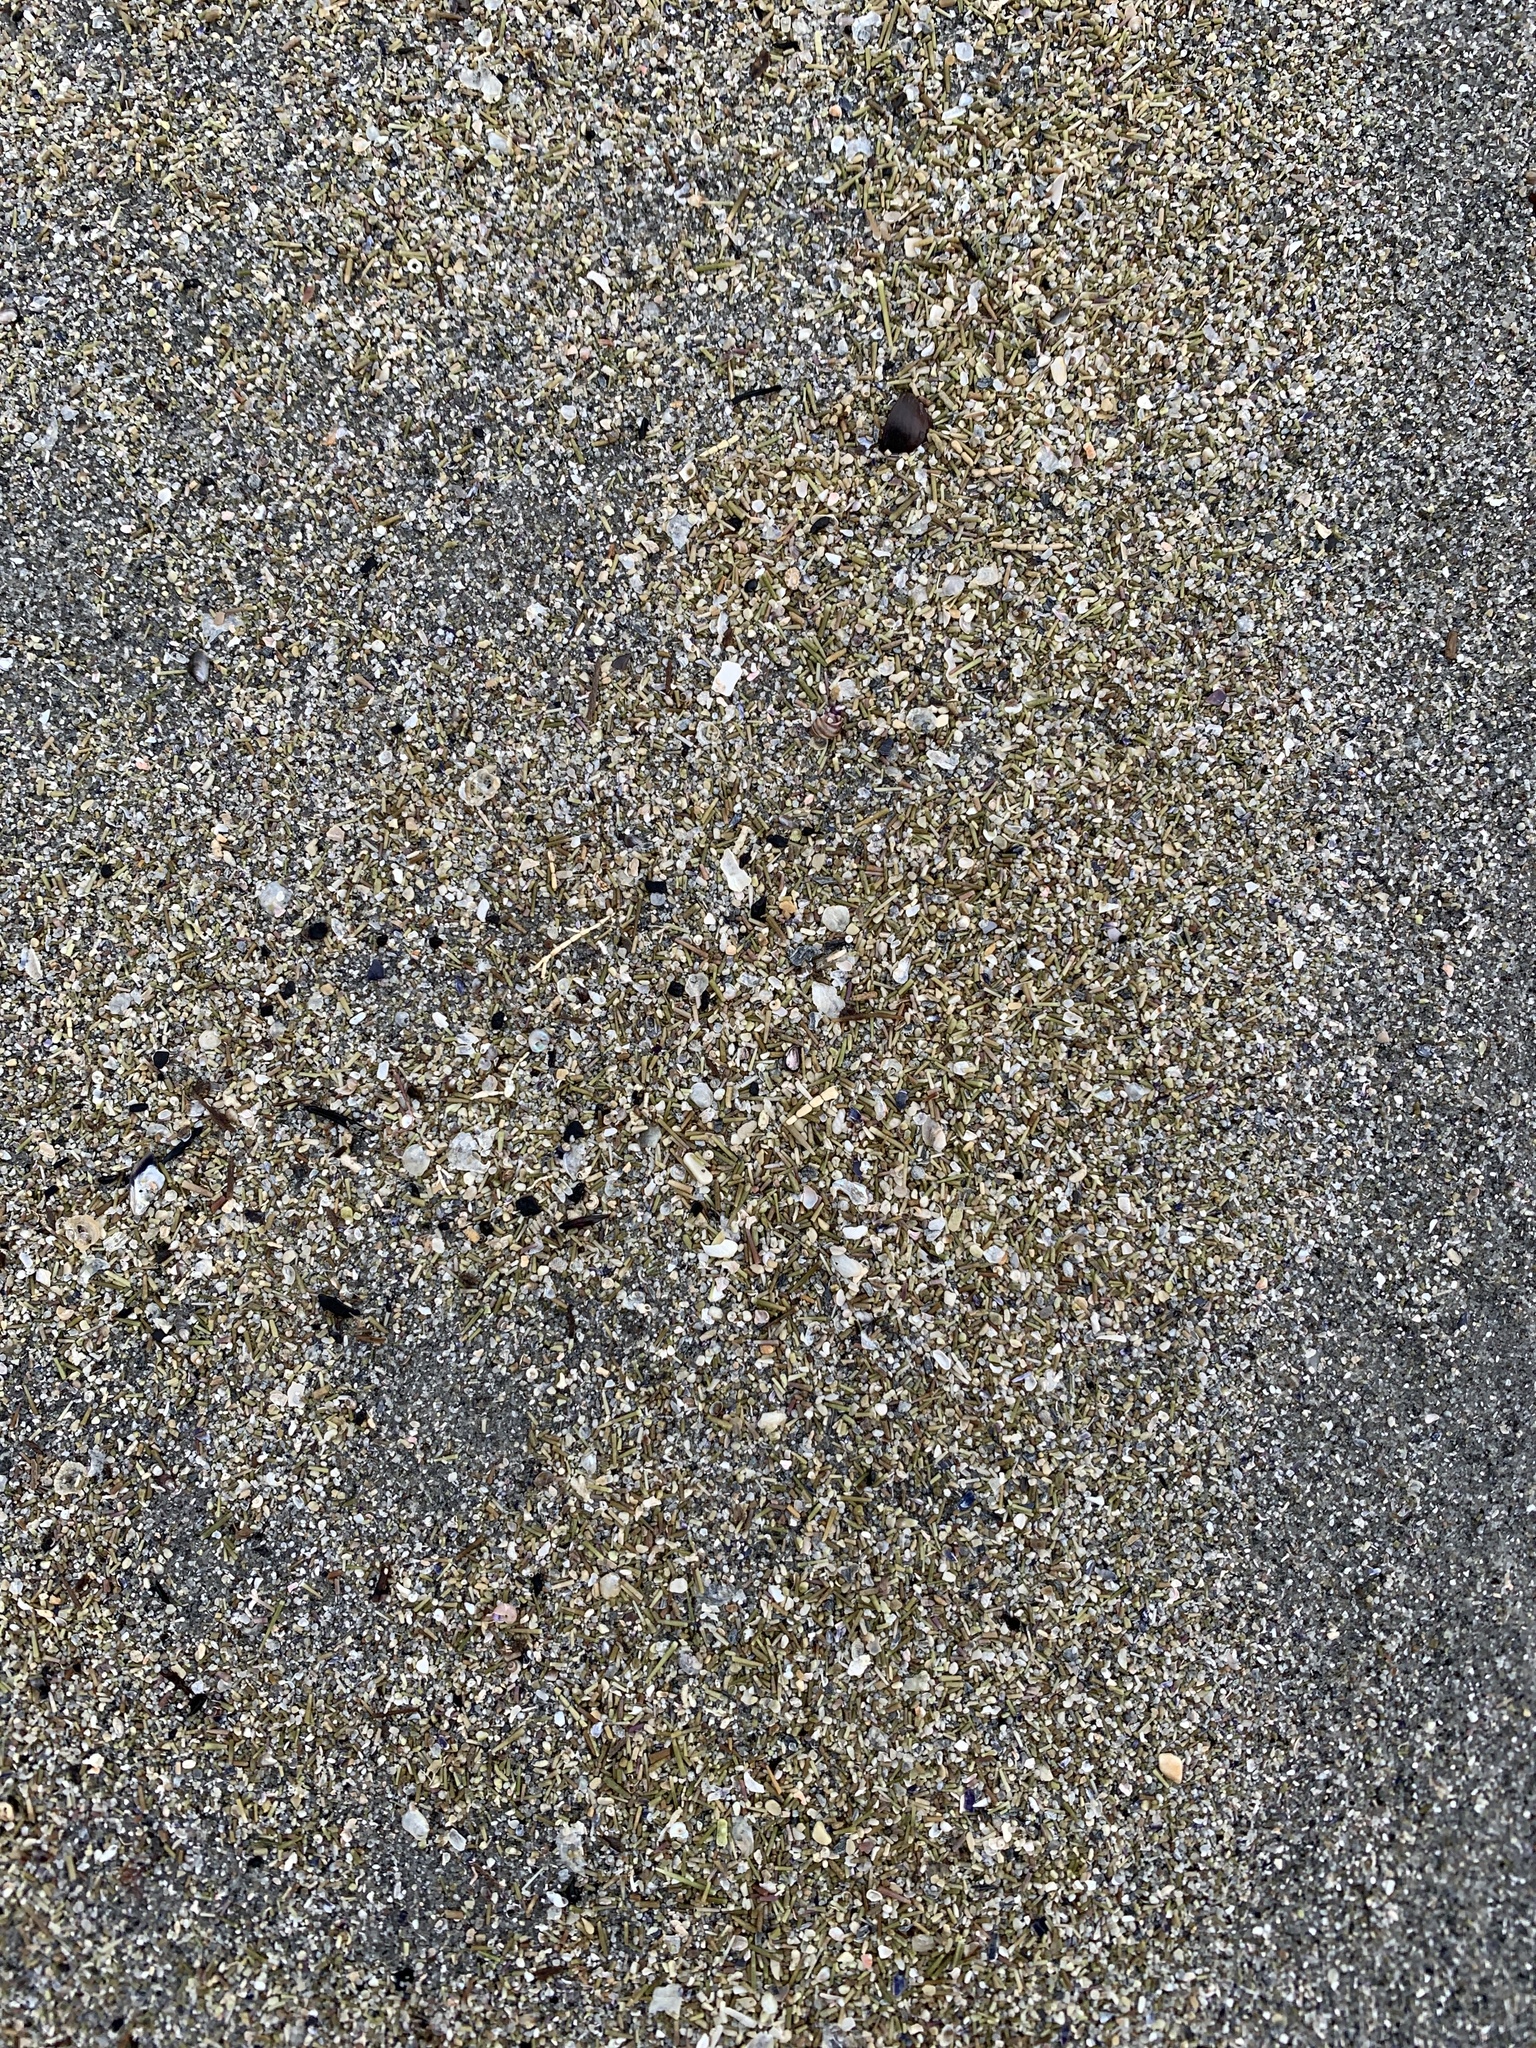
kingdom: Animalia
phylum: Echinodermata
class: Echinoidea
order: Camarodonta
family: Strongylocentrotidae
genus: Strongylocentrotus
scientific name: Strongylocentrotus droebachiensis
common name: Northern sea urchin
